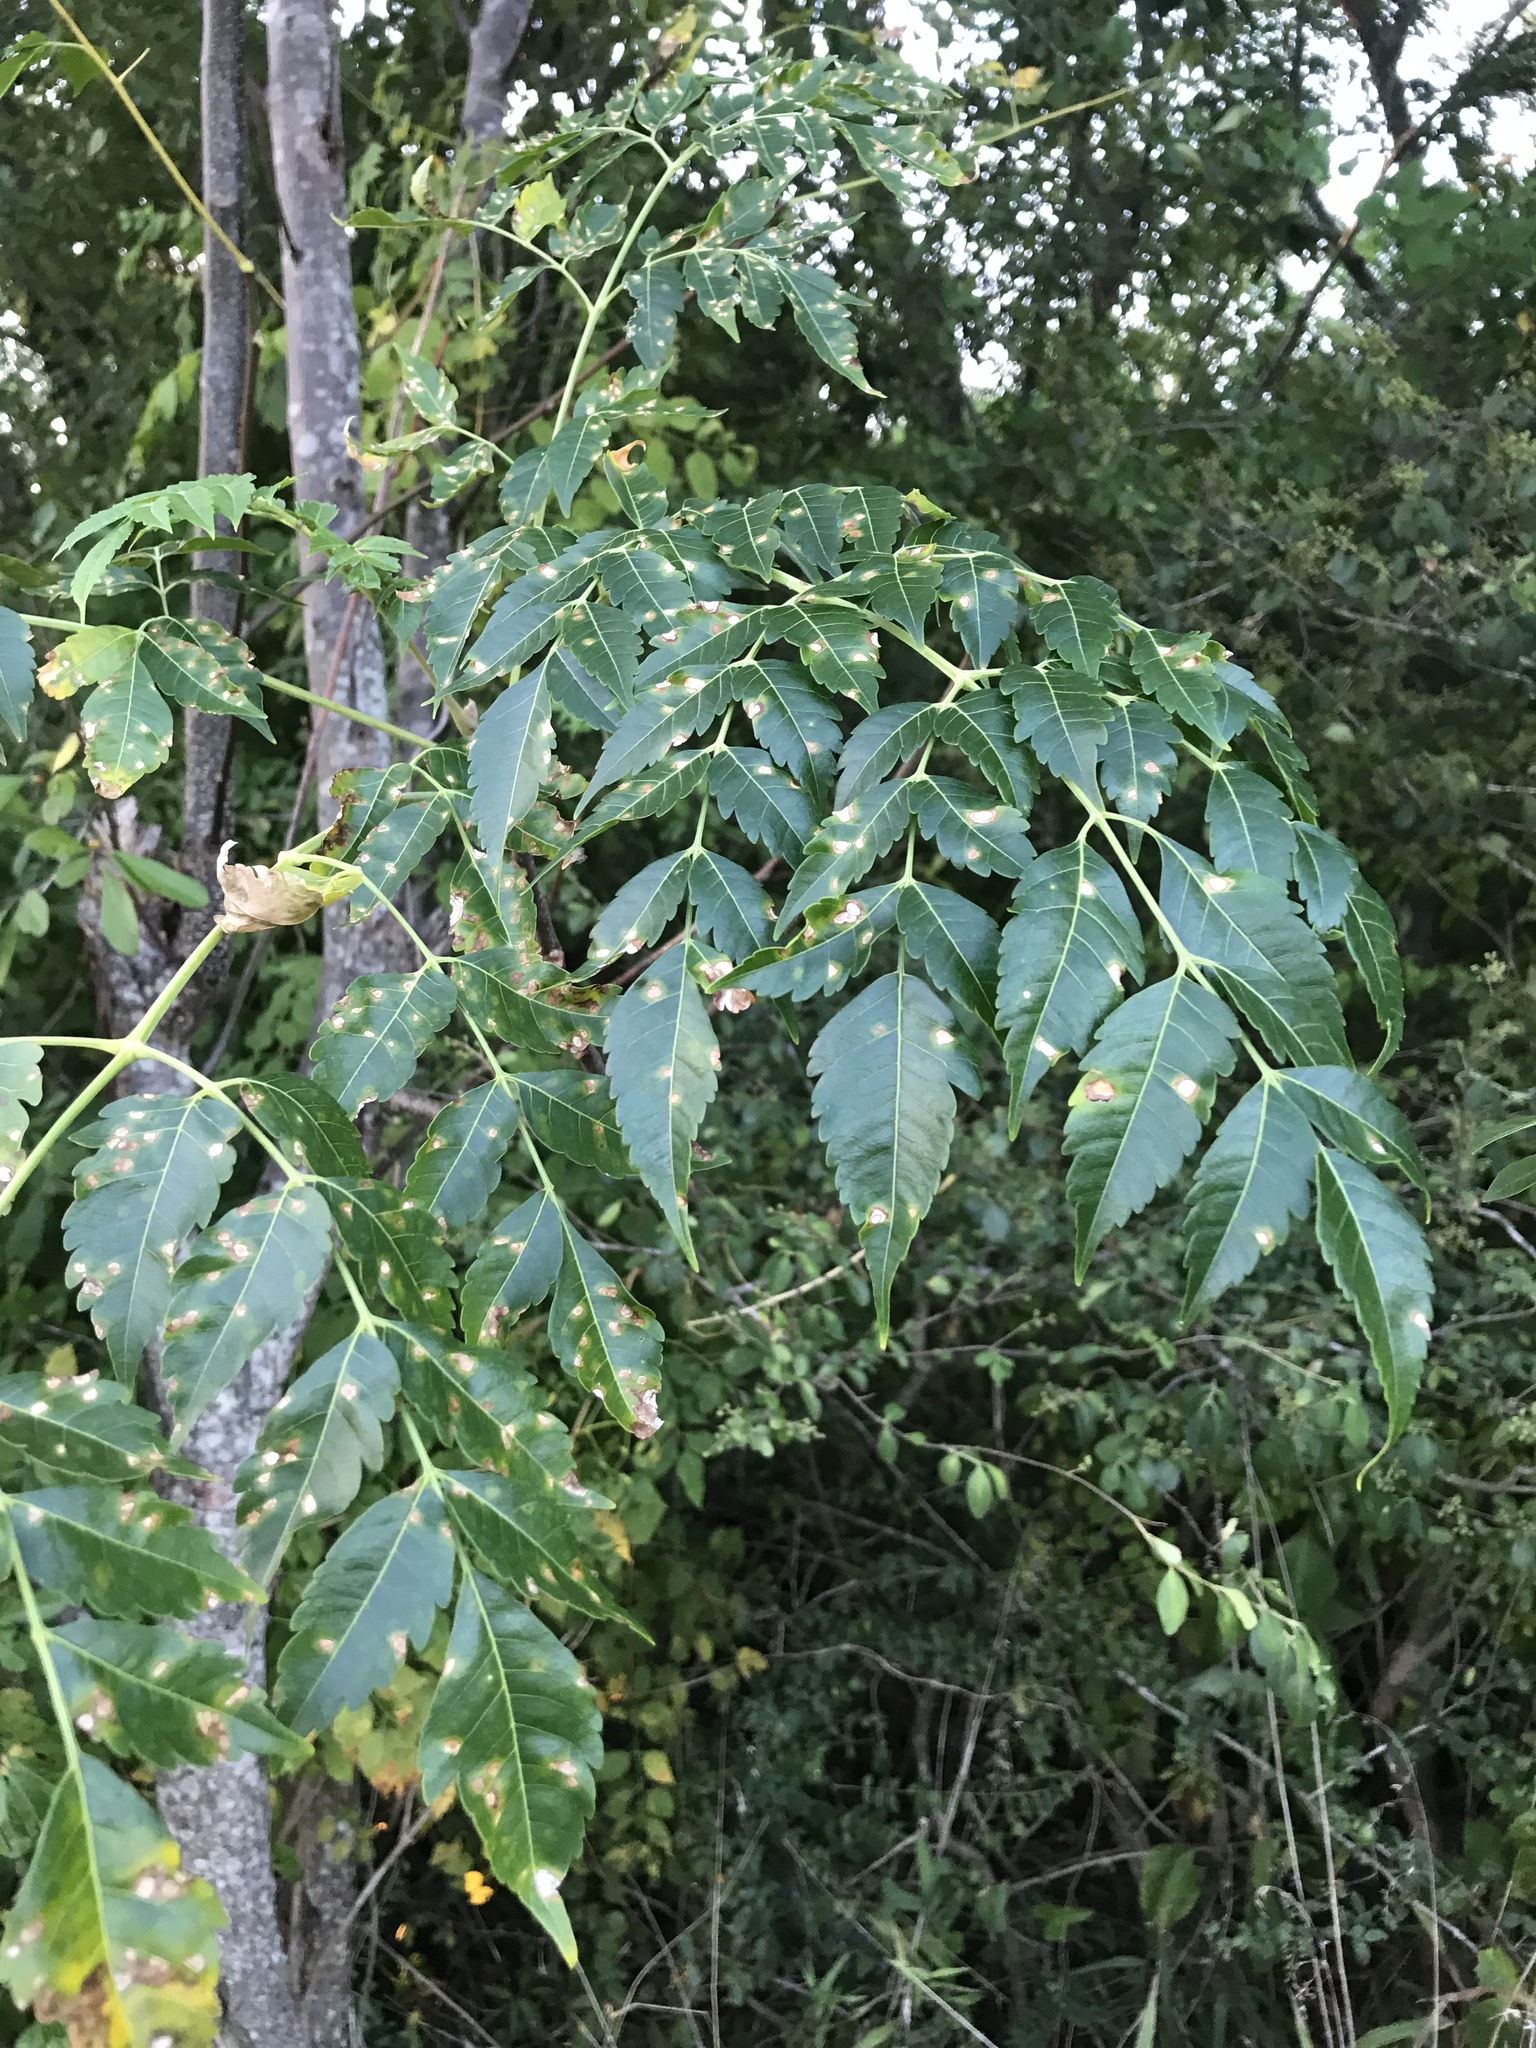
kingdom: Plantae
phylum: Tracheophyta
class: Magnoliopsida
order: Sapindales
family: Meliaceae
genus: Melia
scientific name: Melia azedarach
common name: Chinaberrytree
